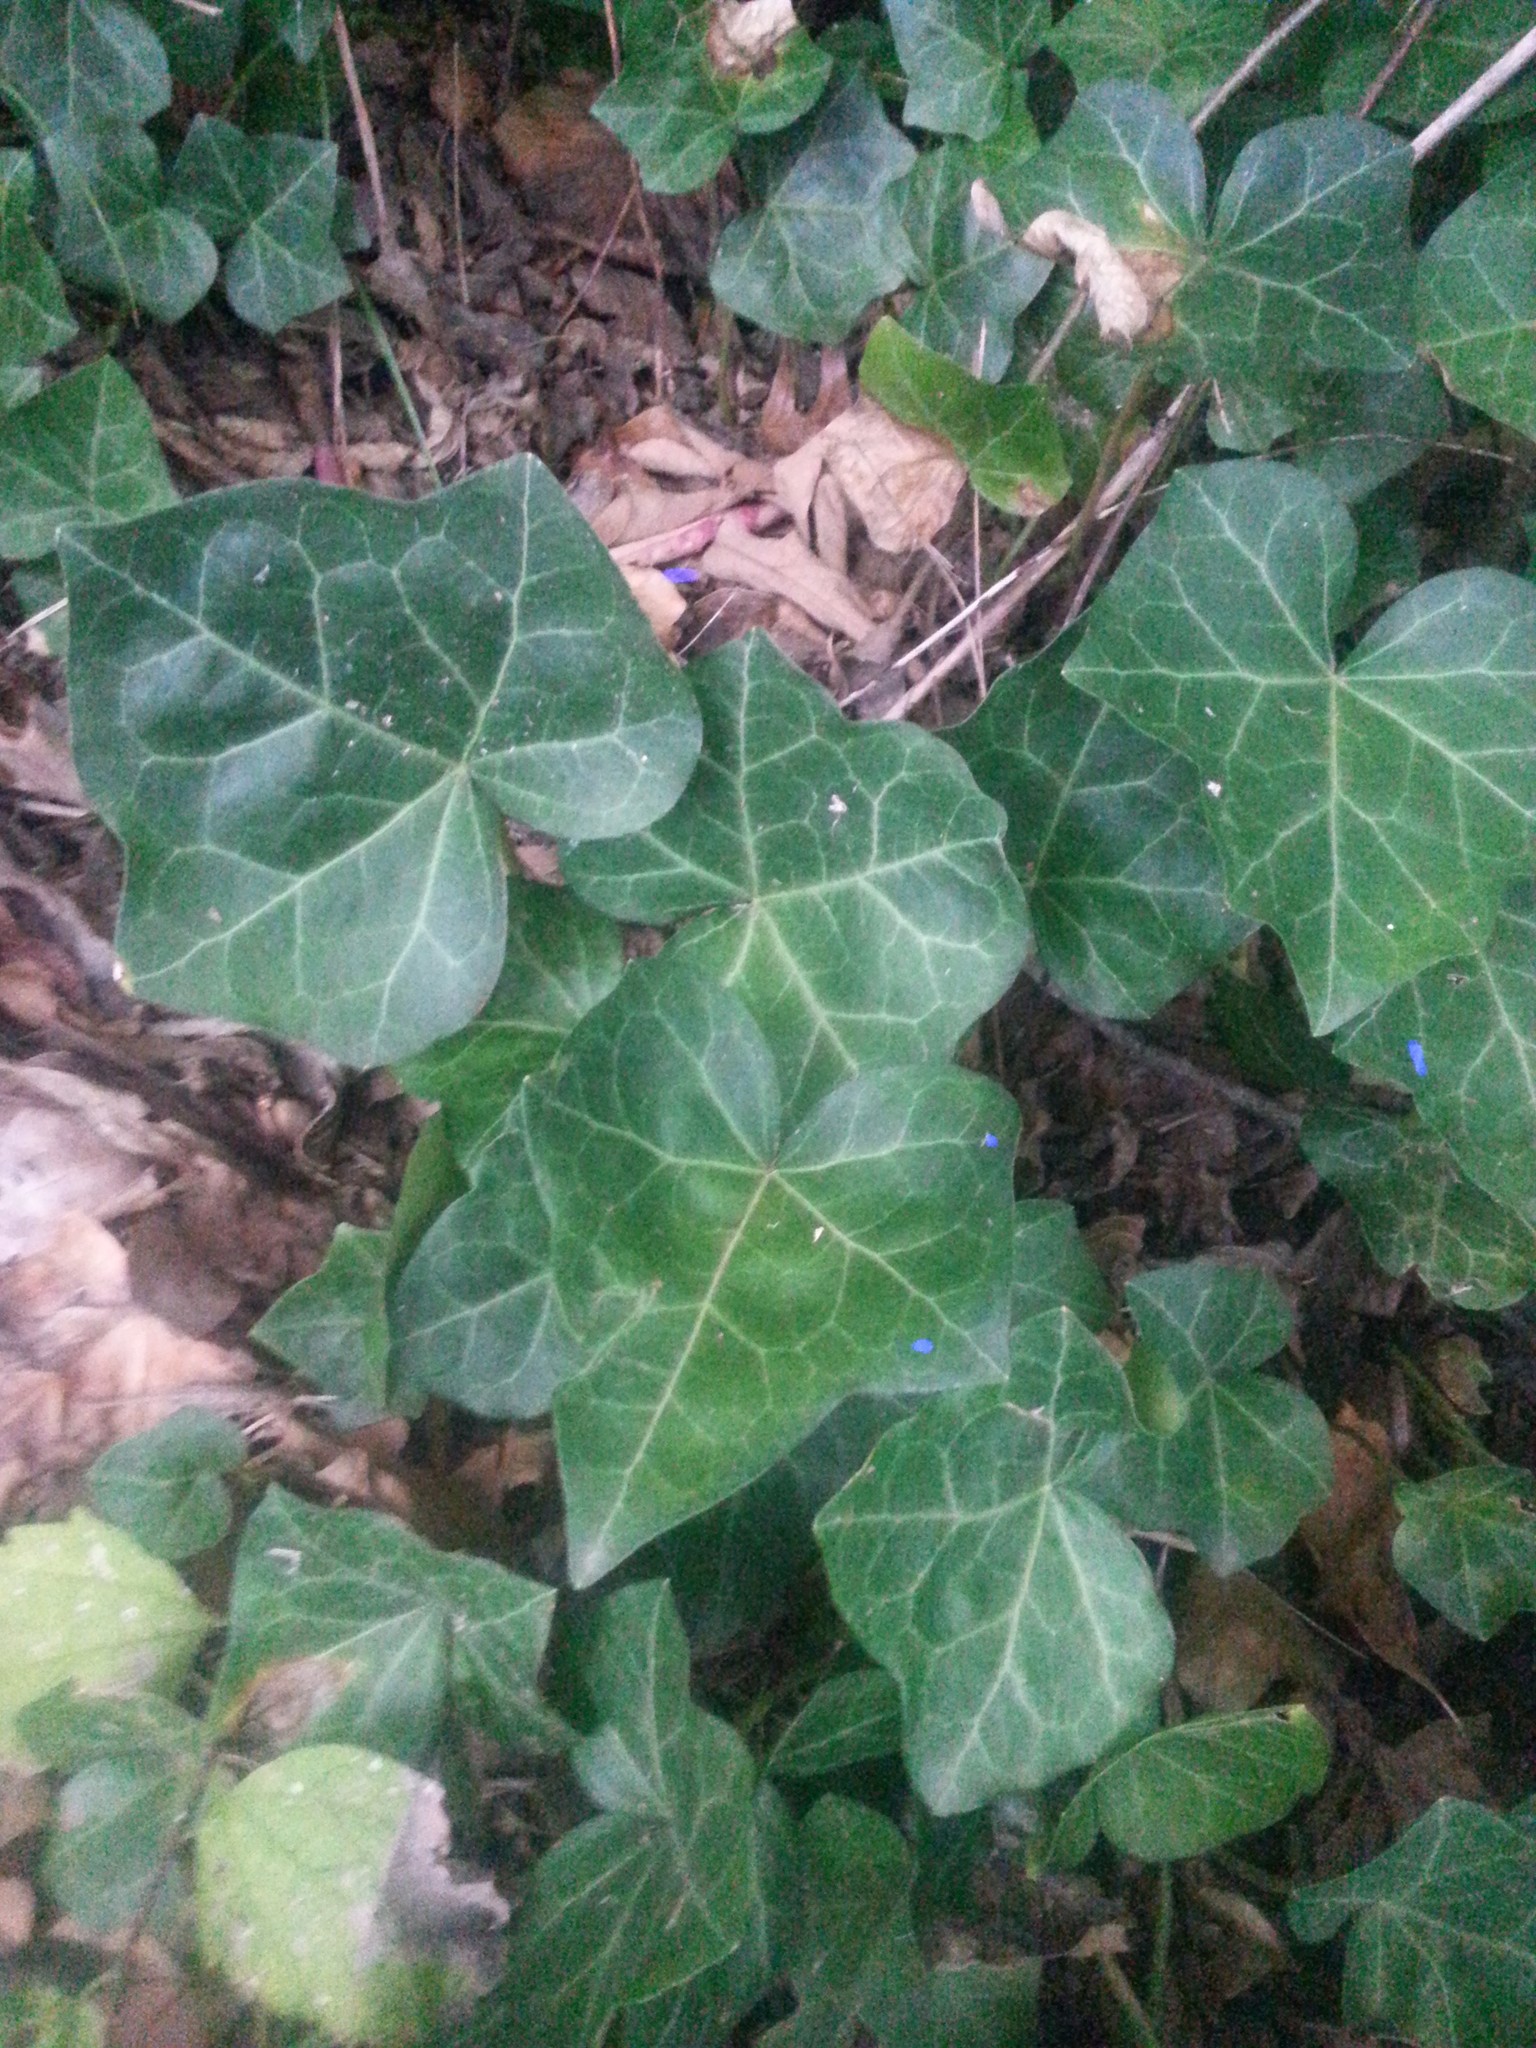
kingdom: Plantae
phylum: Tracheophyta
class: Magnoliopsida
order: Apiales
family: Araliaceae
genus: Hedera
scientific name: Hedera helix
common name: Ivy
